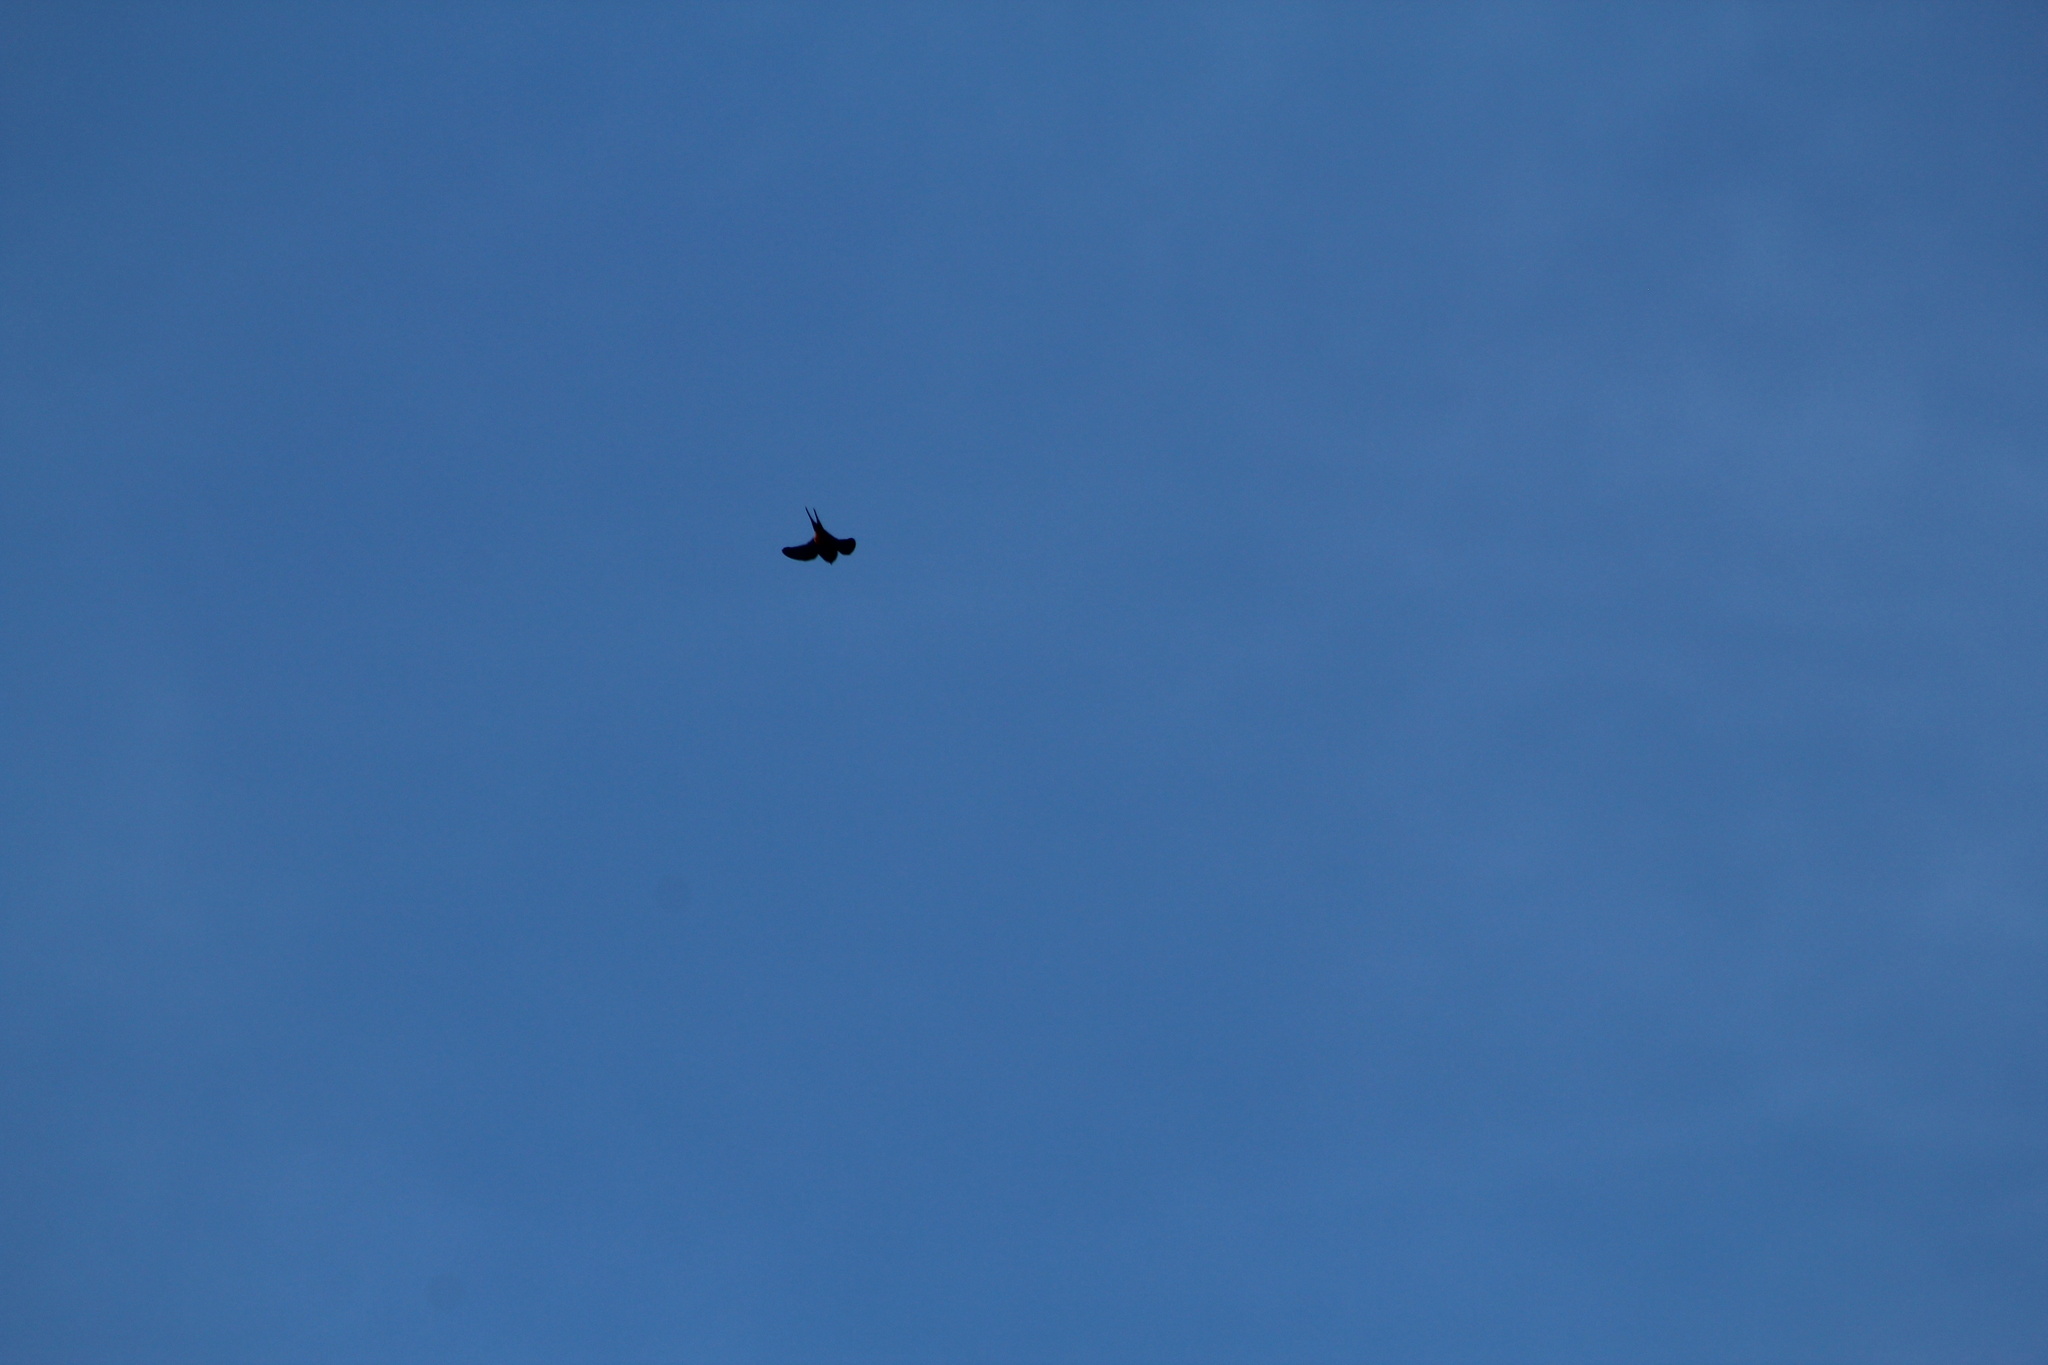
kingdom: Animalia
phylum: Chordata
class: Aves
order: Passeriformes
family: Hirundinidae
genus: Hirundo
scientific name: Hirundo rustica
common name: Barn swallow
